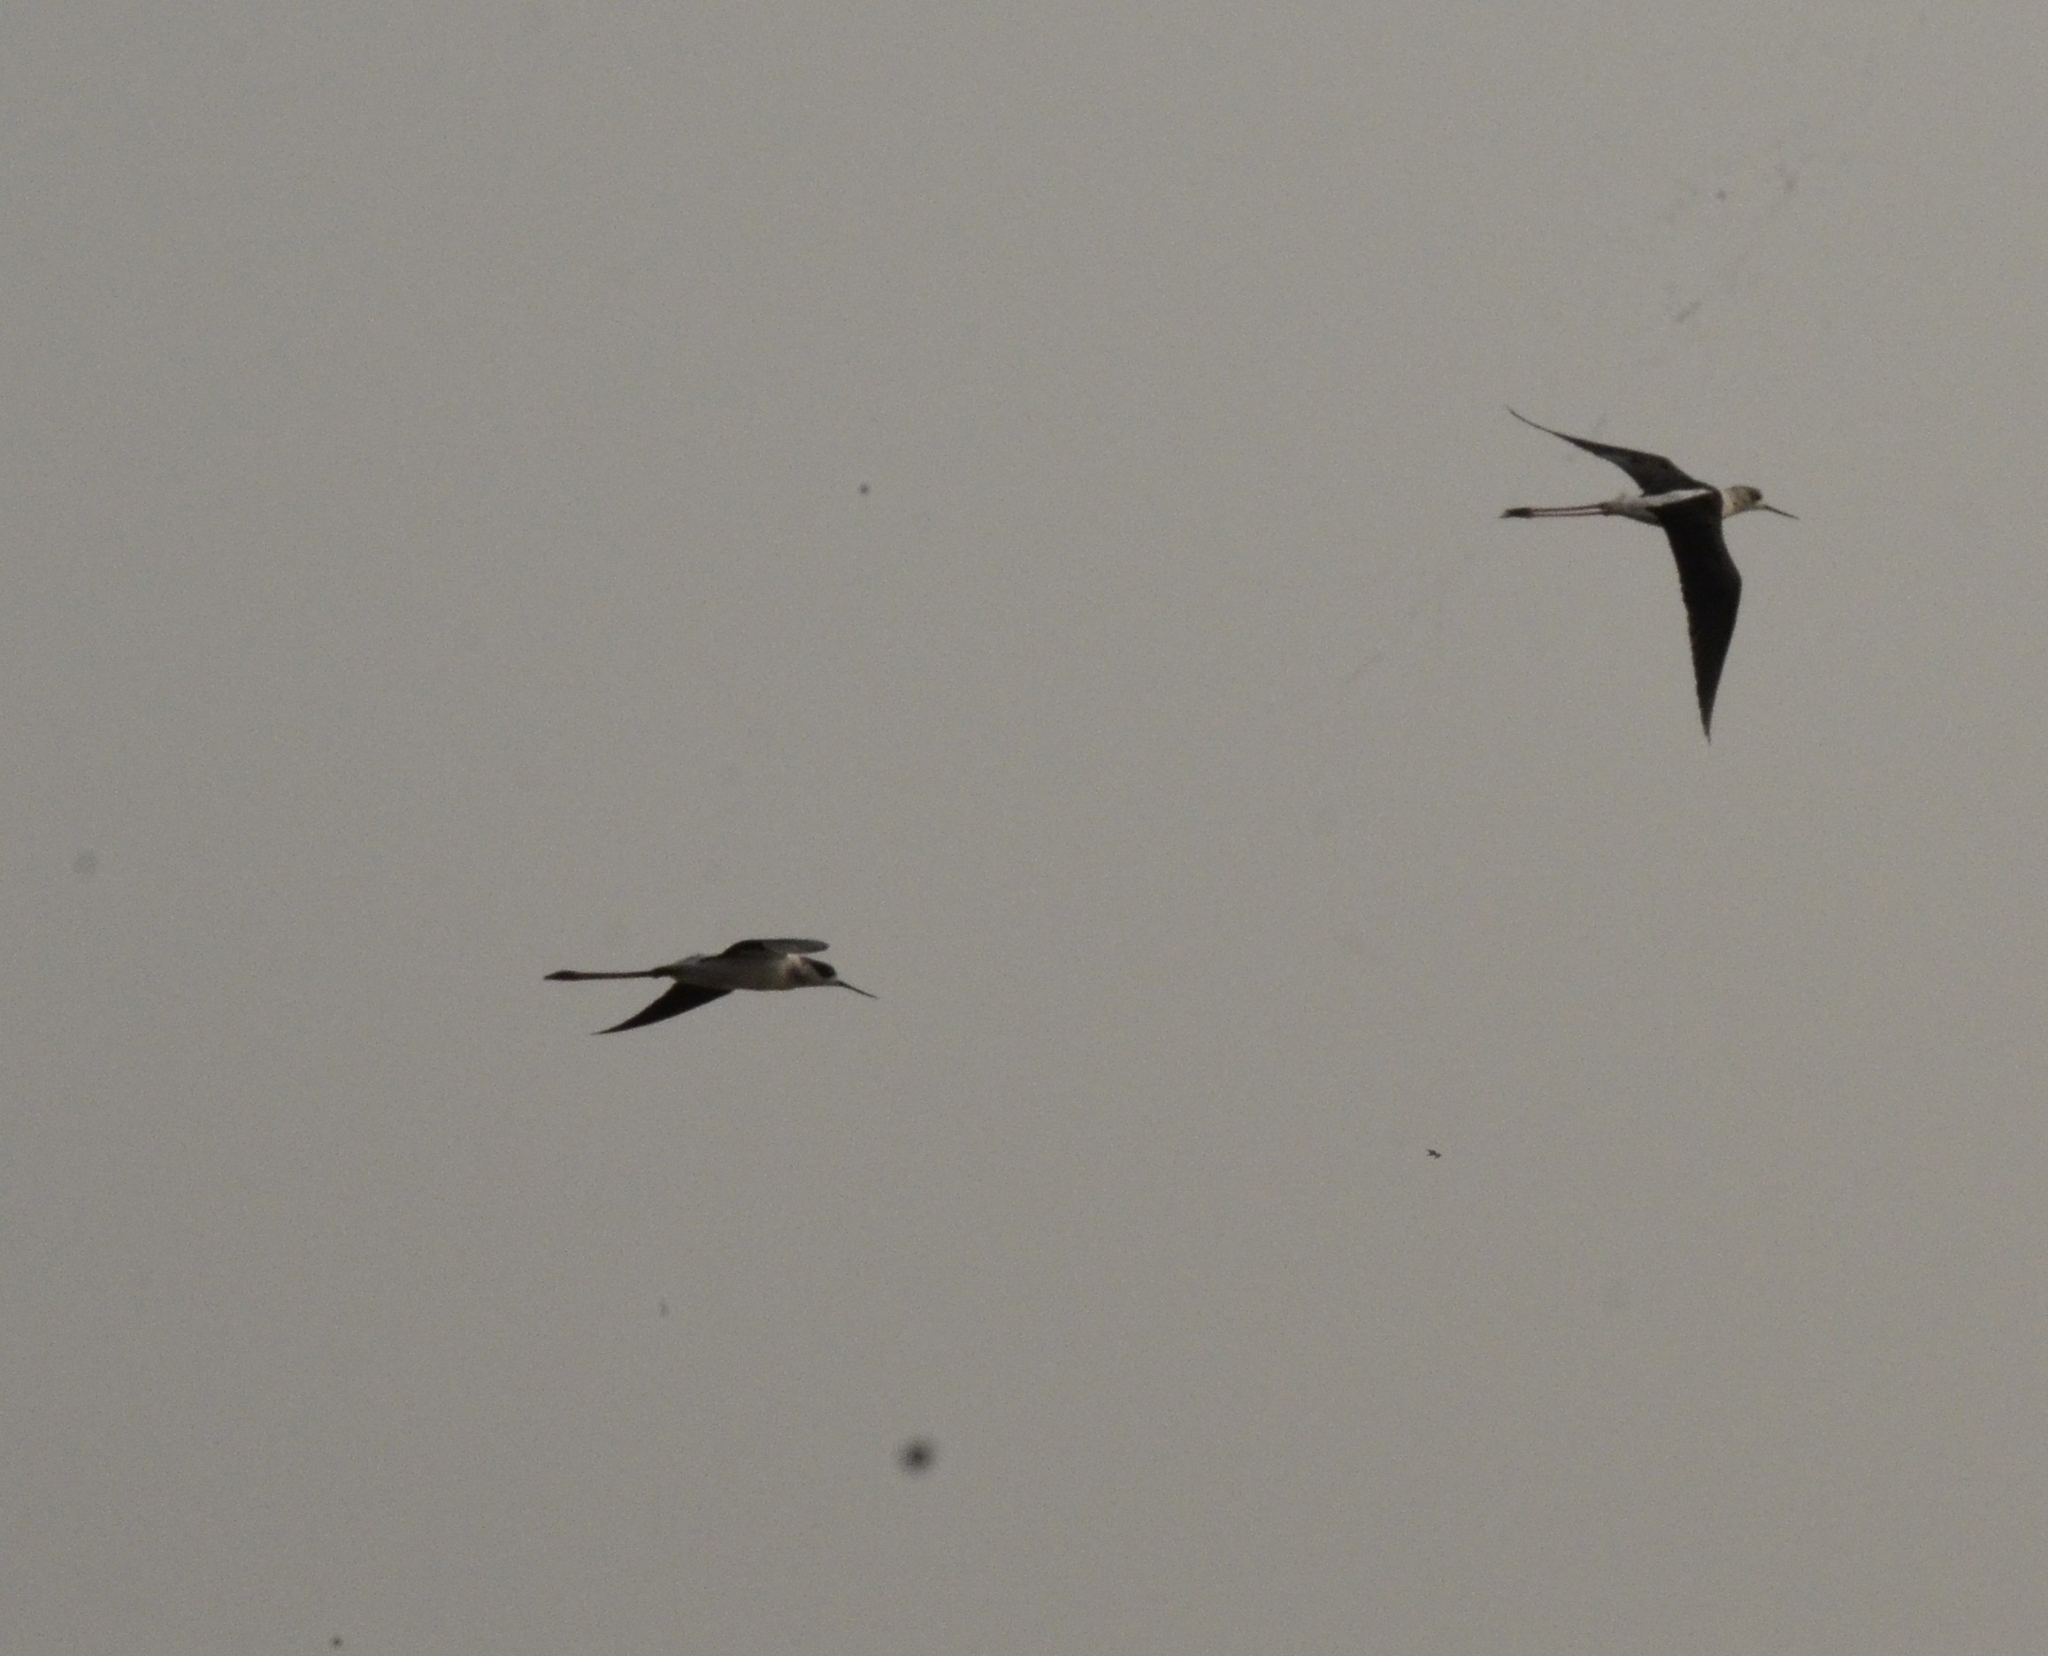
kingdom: Animalia
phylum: Chordata
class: Aves
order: Charadriiformes
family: Recurvirostridae
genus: Himantopus
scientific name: Himantopus himantopus
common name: Black-winged stilt
